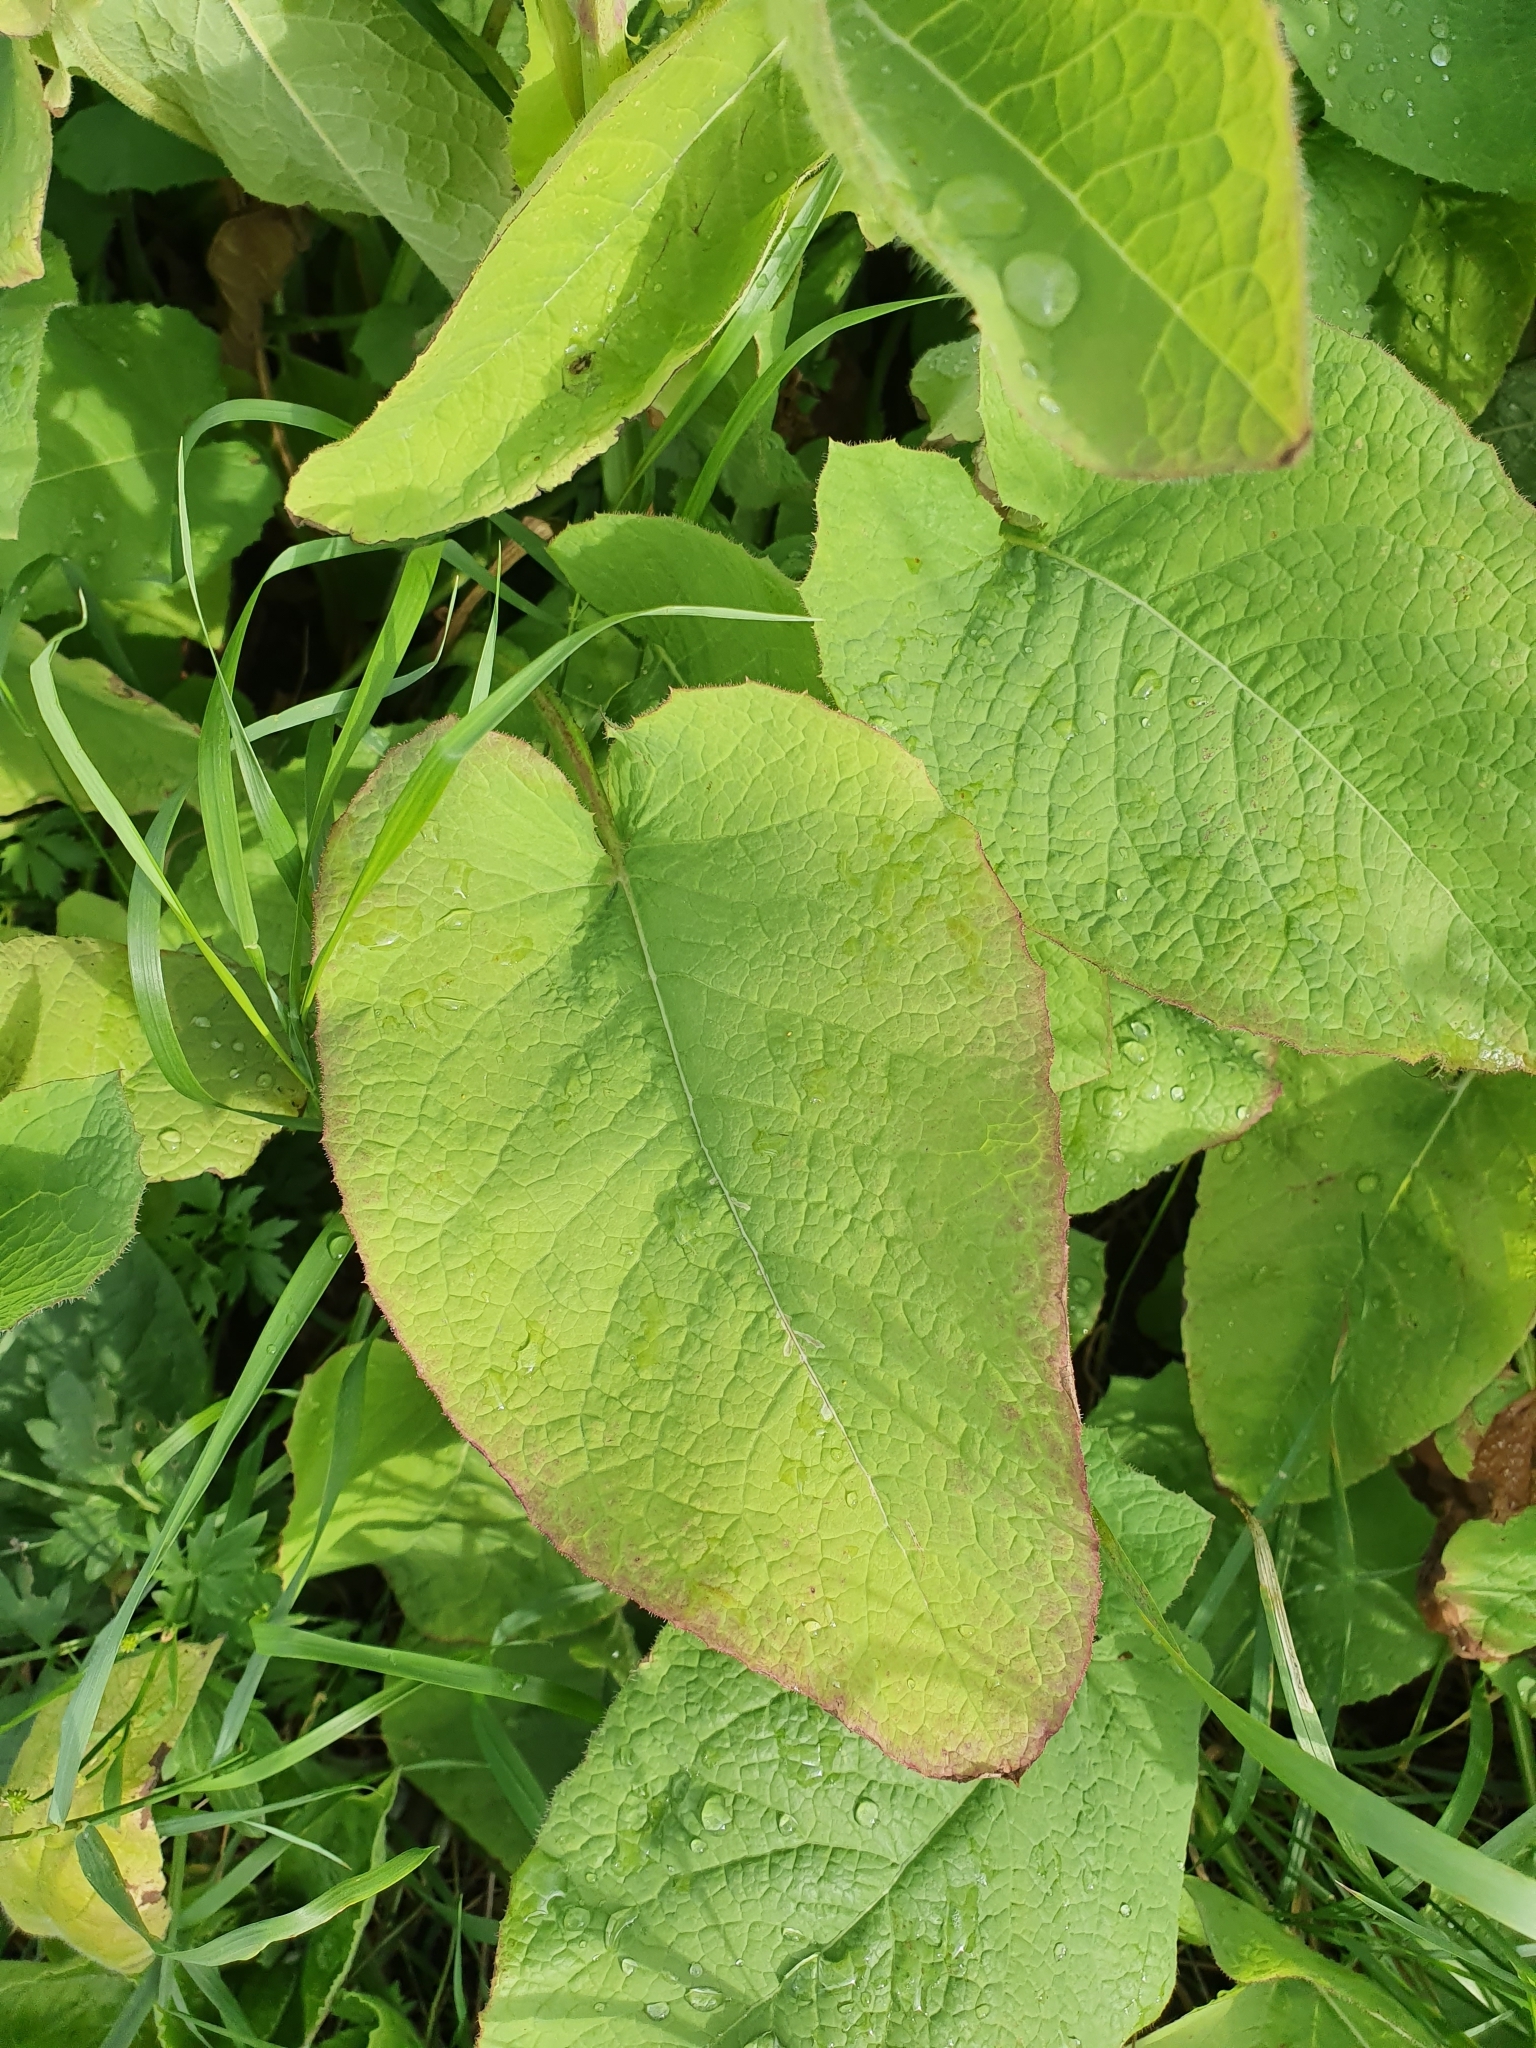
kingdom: Plantae
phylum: Tracheophyta
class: Magnoliopsida
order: Asterales
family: Asteraceae
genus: Lactuca
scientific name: Lactuca macrophylla
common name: Common blue-sow-thistle
